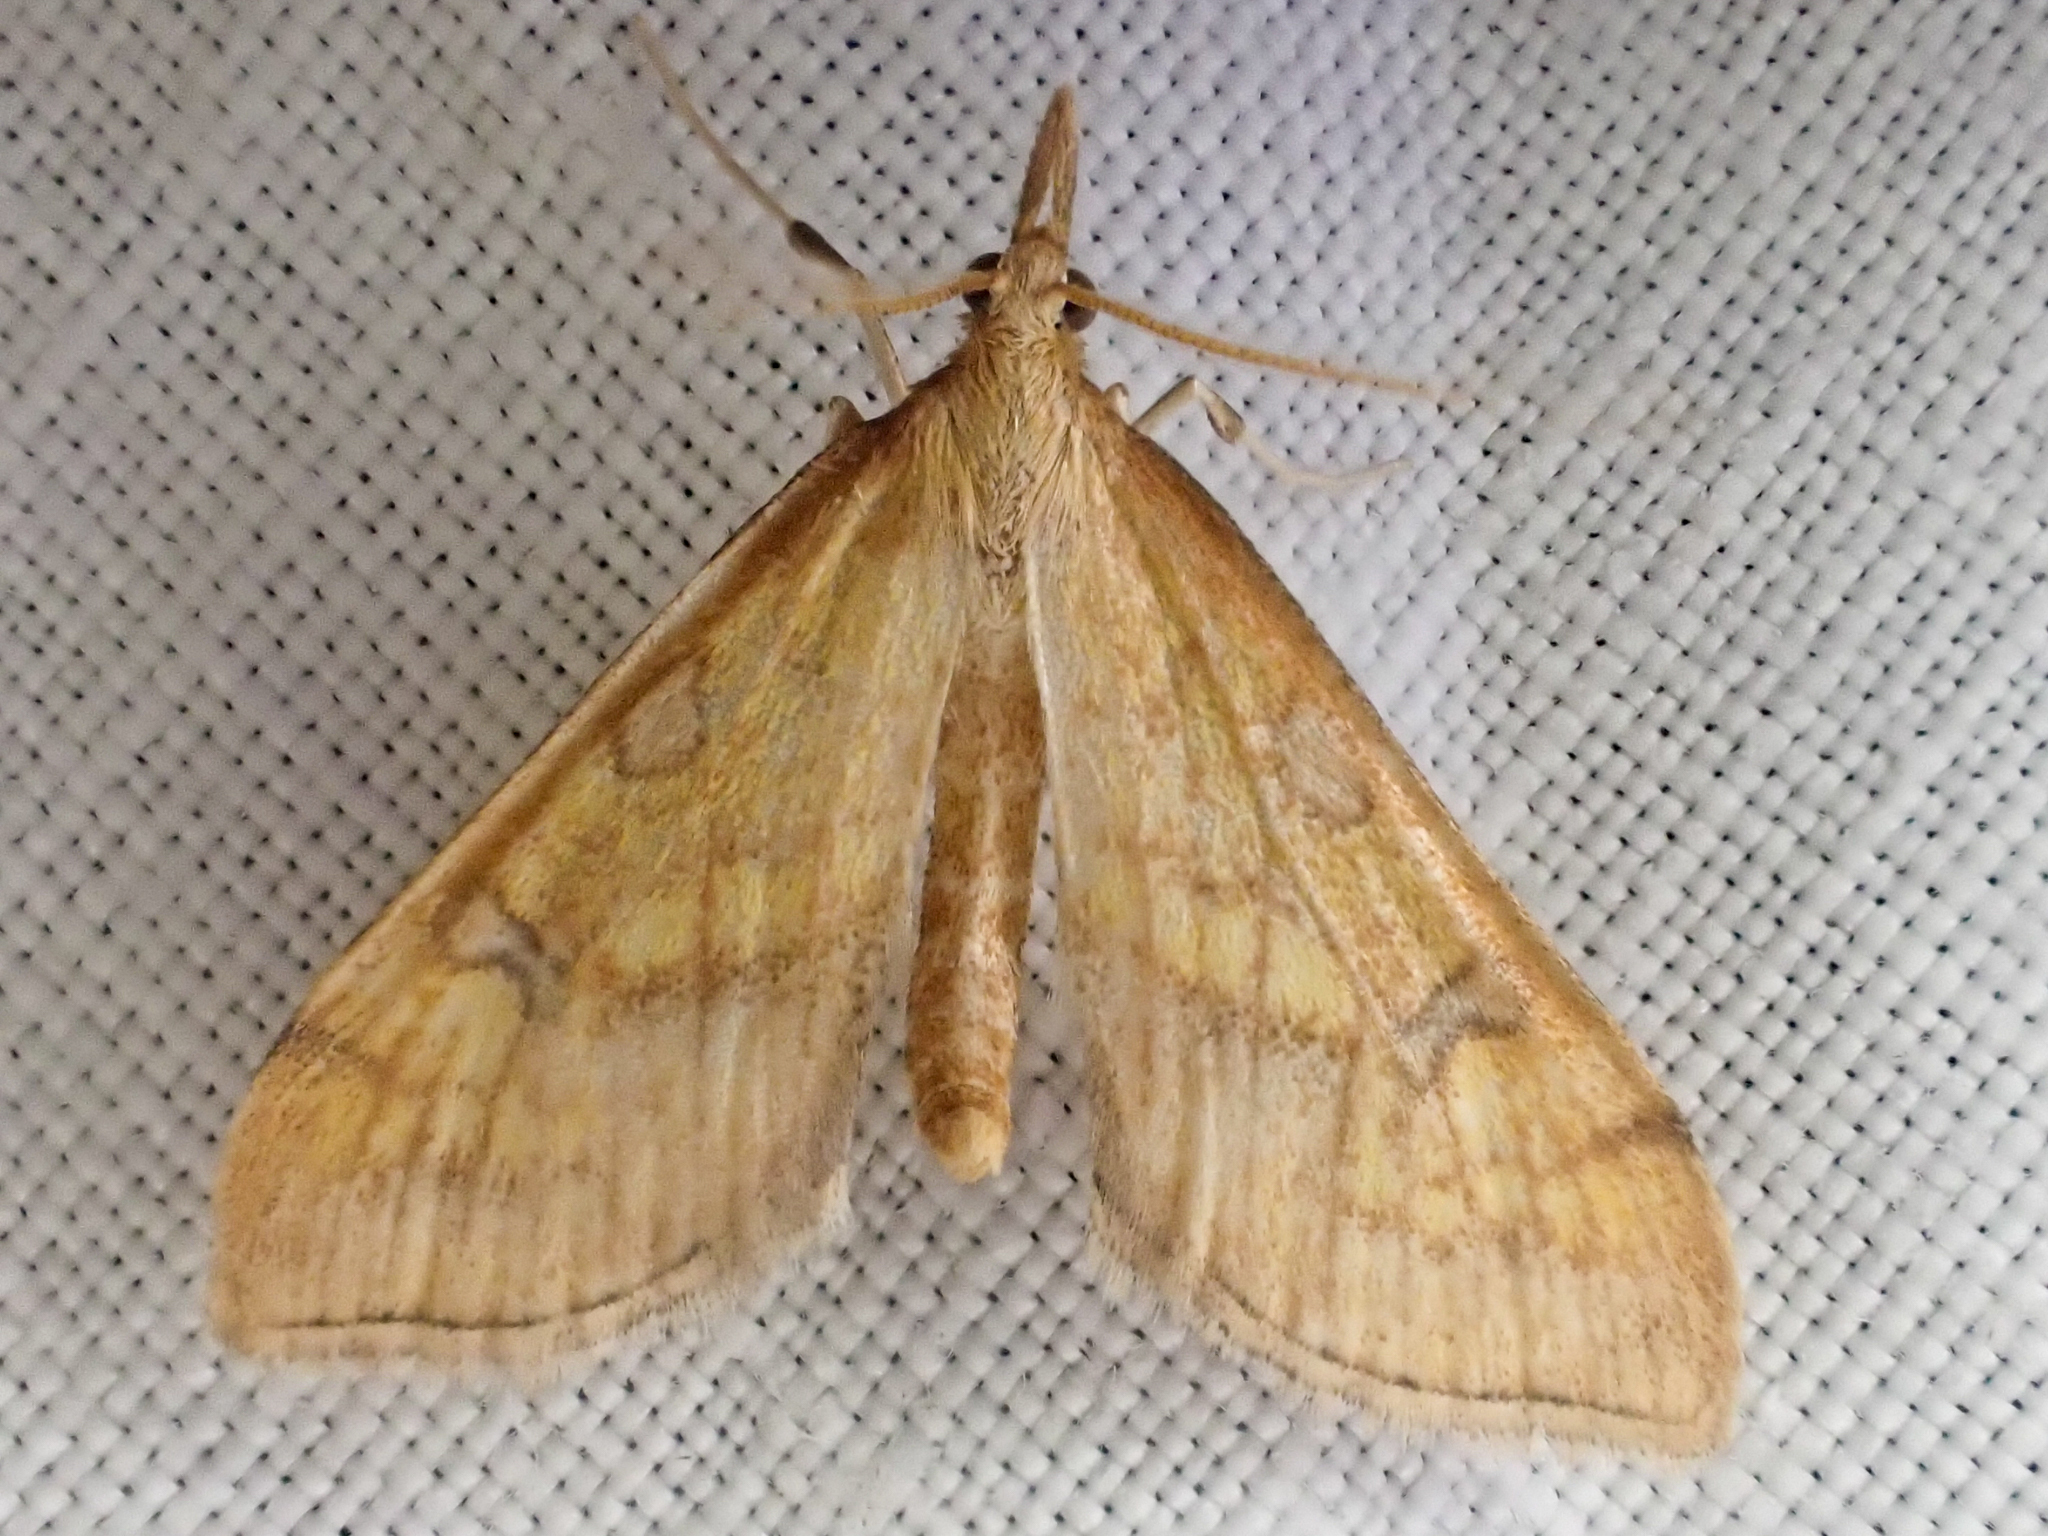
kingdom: Animalia
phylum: Arthropoda
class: Insecta
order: Lepidoptera
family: Crambidae
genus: Choristostigma
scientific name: Choristostigma disputalis
